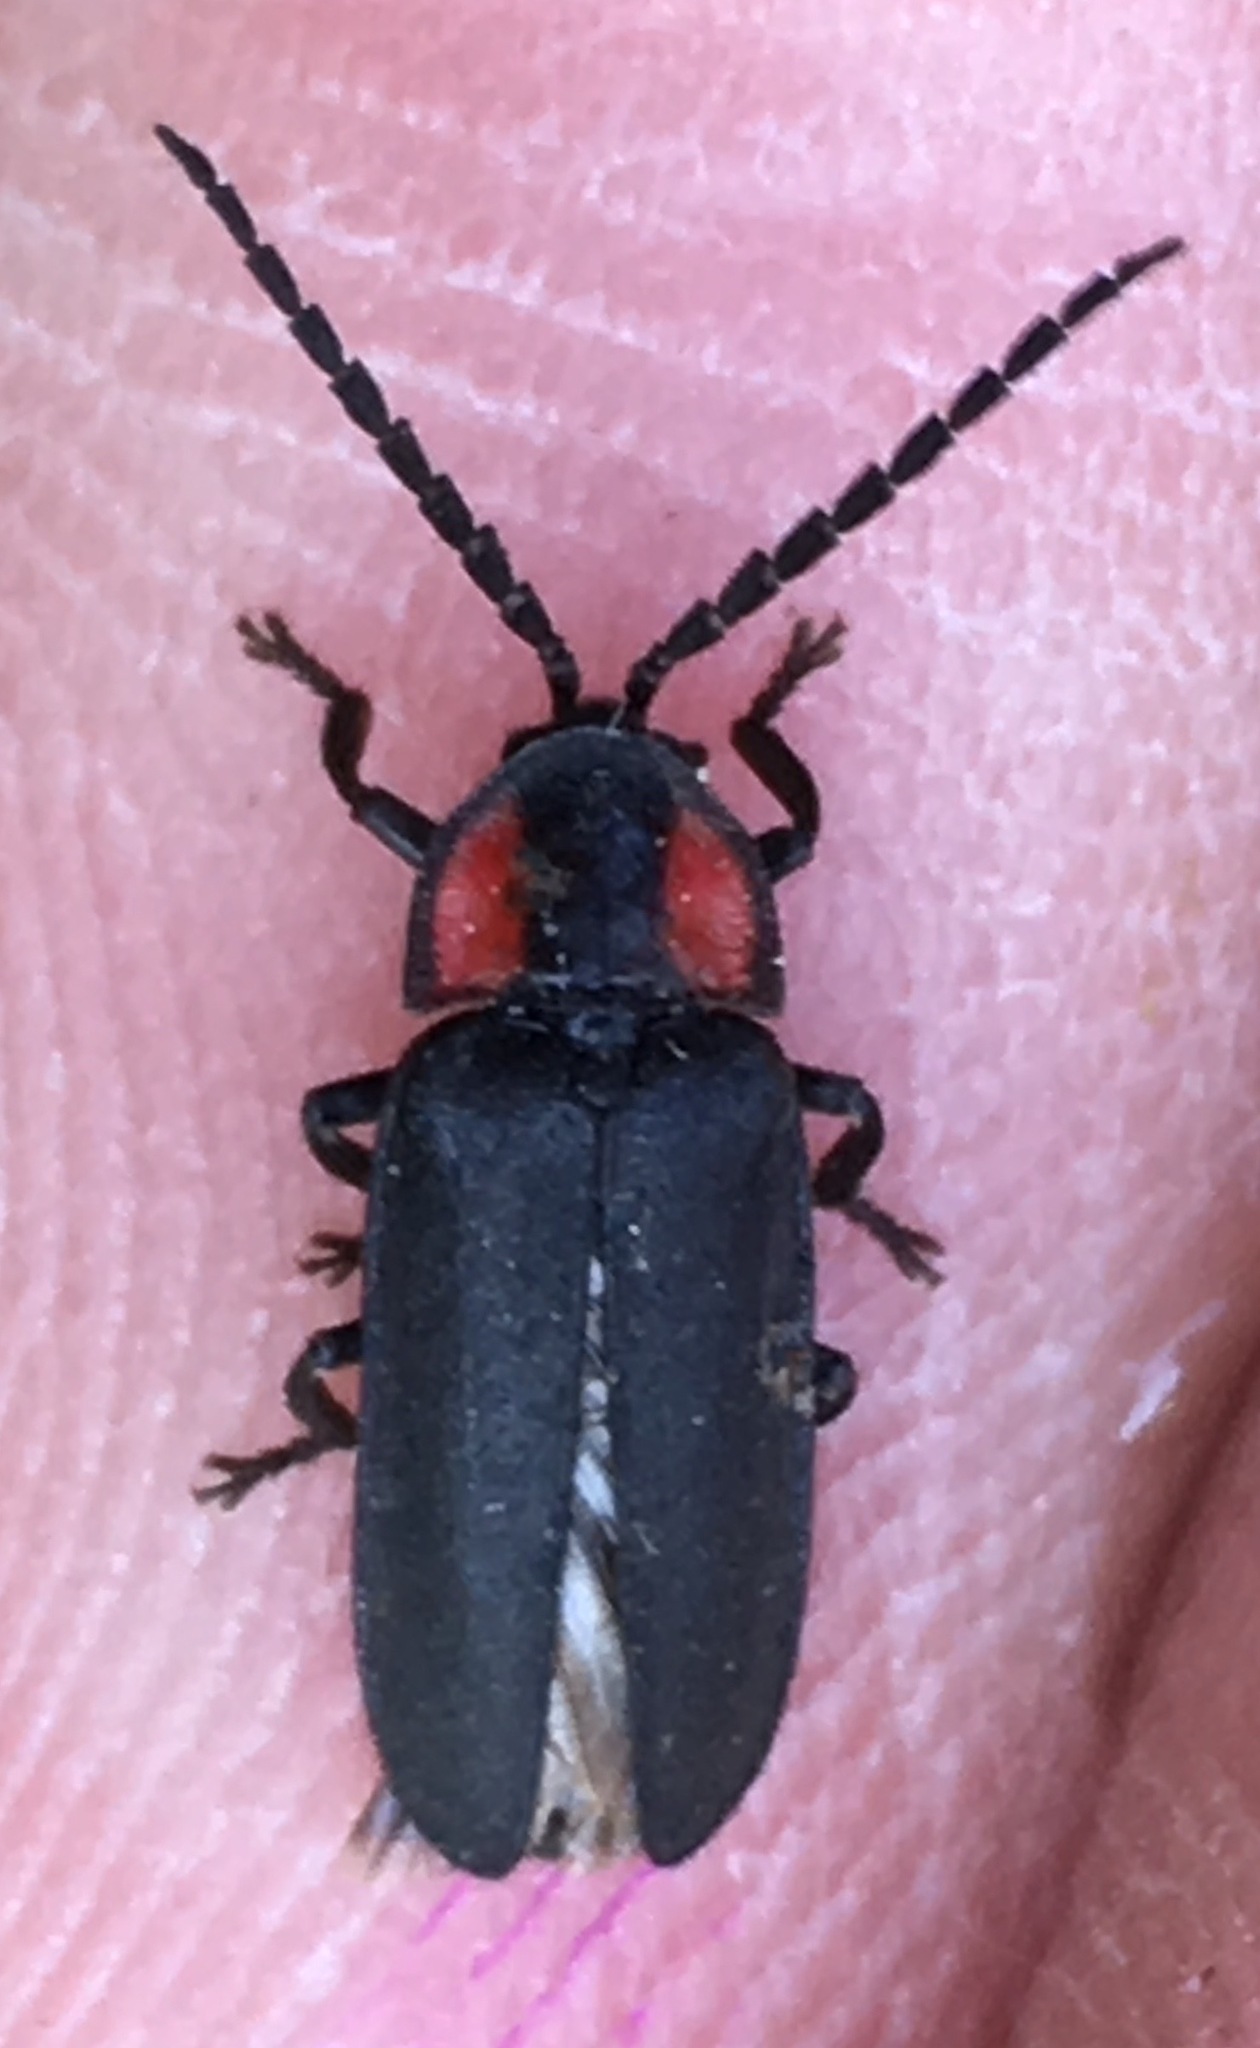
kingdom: Animalia
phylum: Arthropoda
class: Insecta
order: Coleoptera
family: Lampyridae
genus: Pyropyga
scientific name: Pyropyga nigricans
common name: Dark firefly
